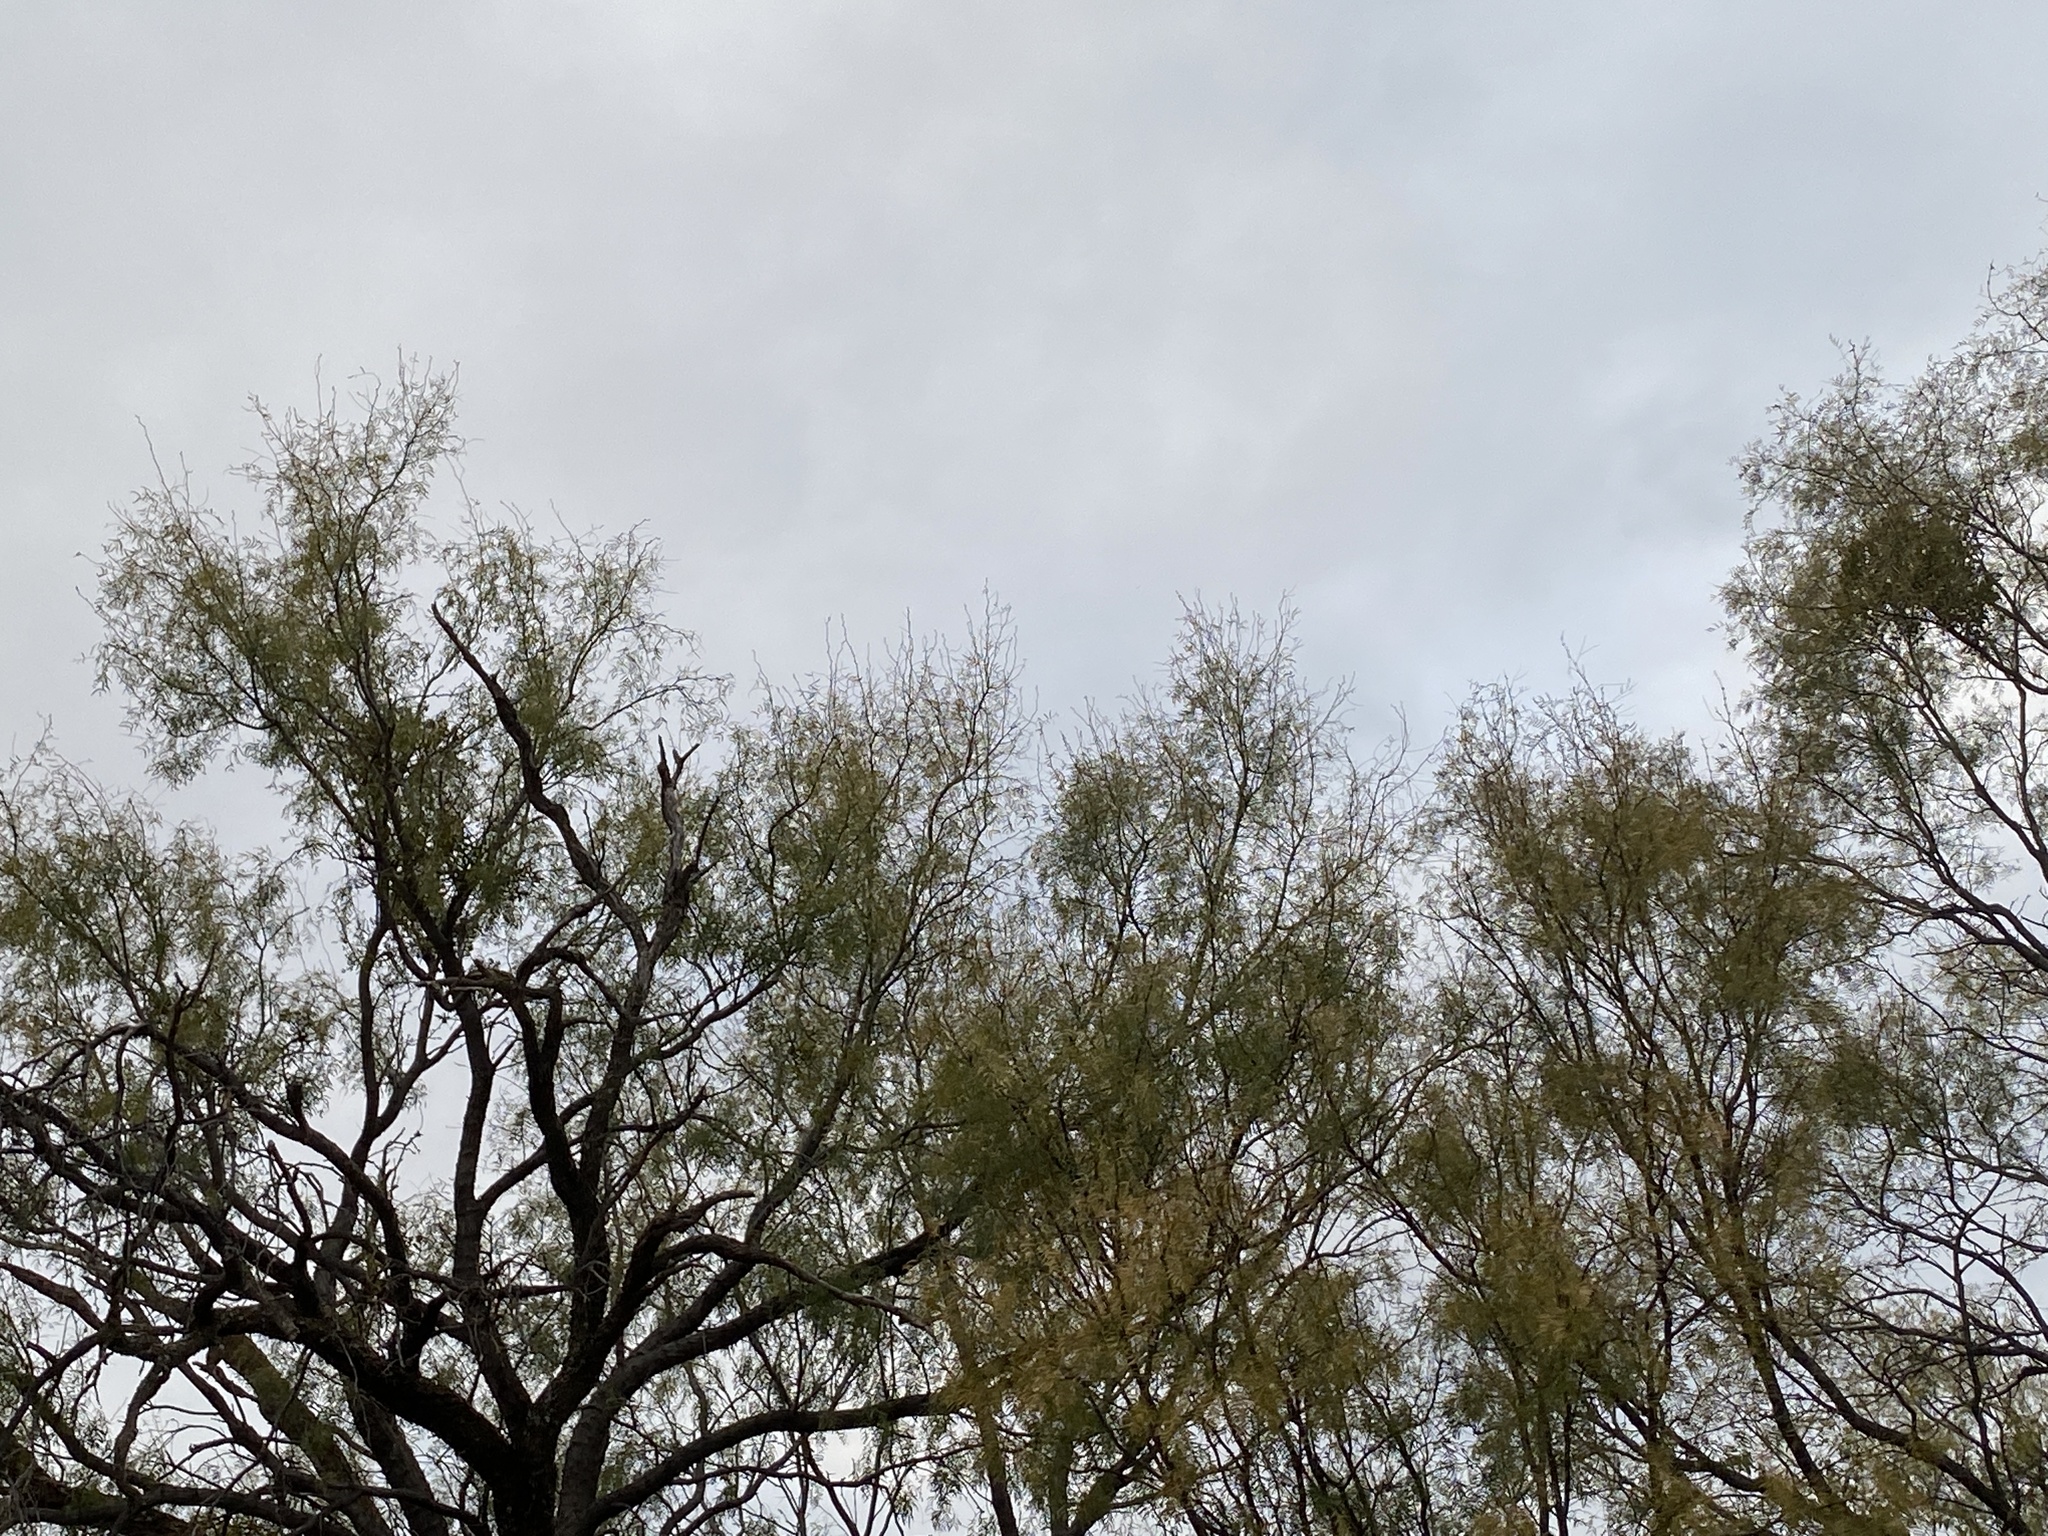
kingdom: Plantae
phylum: Tracheophyta
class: Magnoliopsida
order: Fabales
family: Fabaceae
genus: Prosopis
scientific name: Prosopis glandulosa
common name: Honey mesquite
